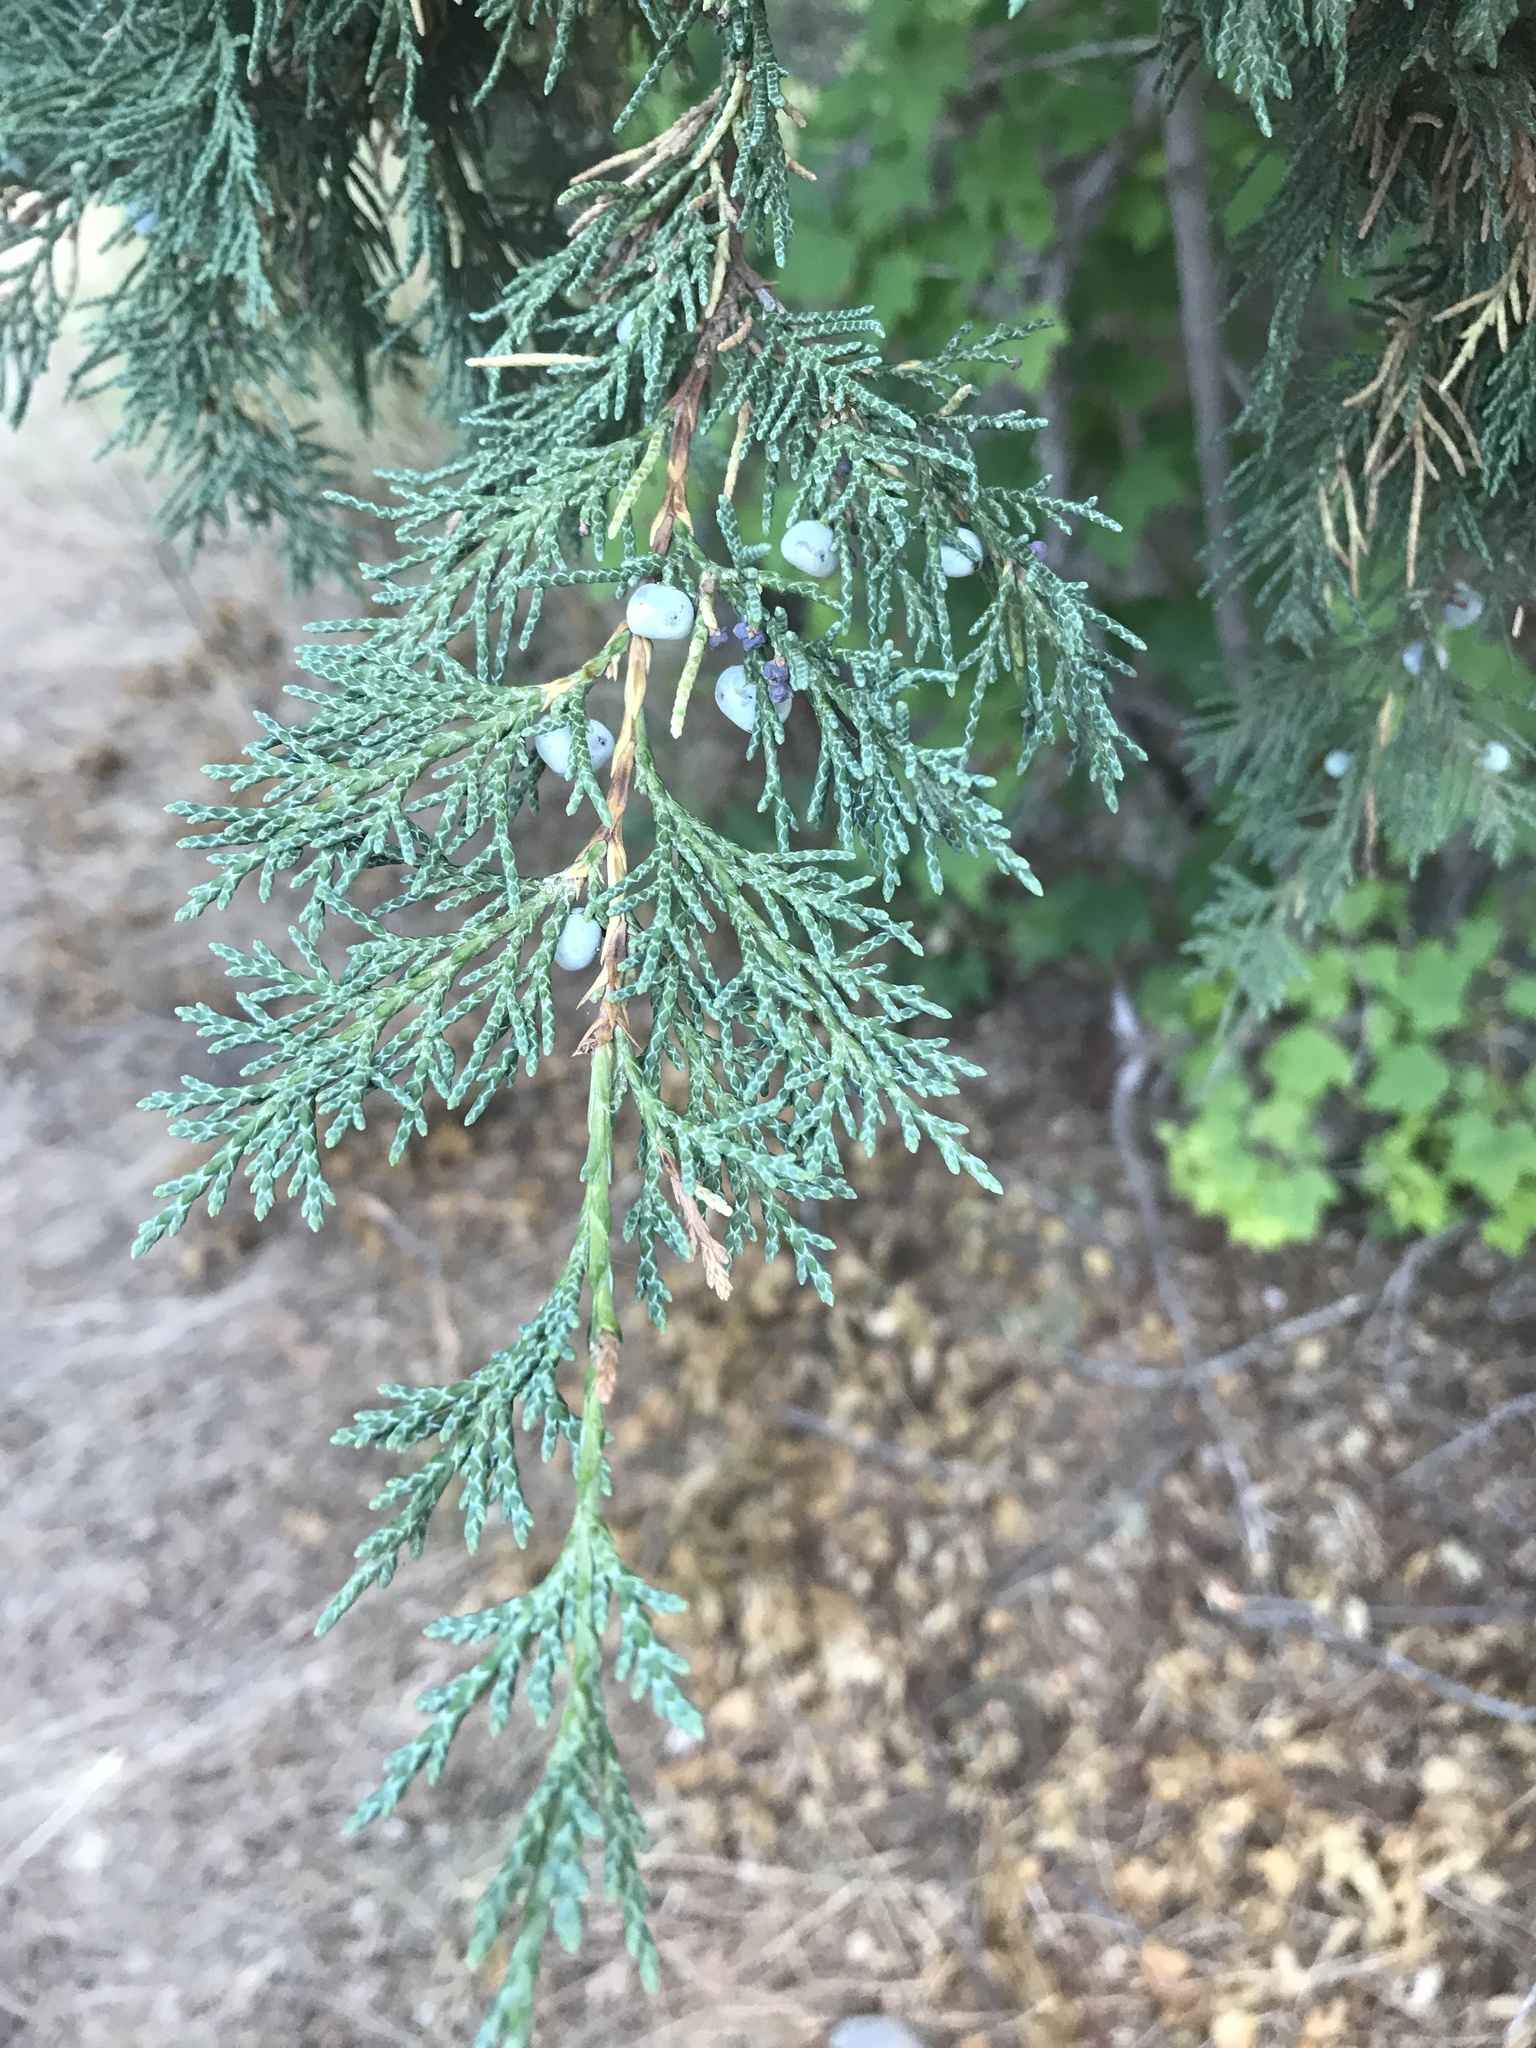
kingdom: Plantae
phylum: Tracheophyta
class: Pinopsida
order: Pinales
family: Cupressaceae
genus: Juniperus
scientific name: Juniperus scopulorum
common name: Rocky mountain juniper
